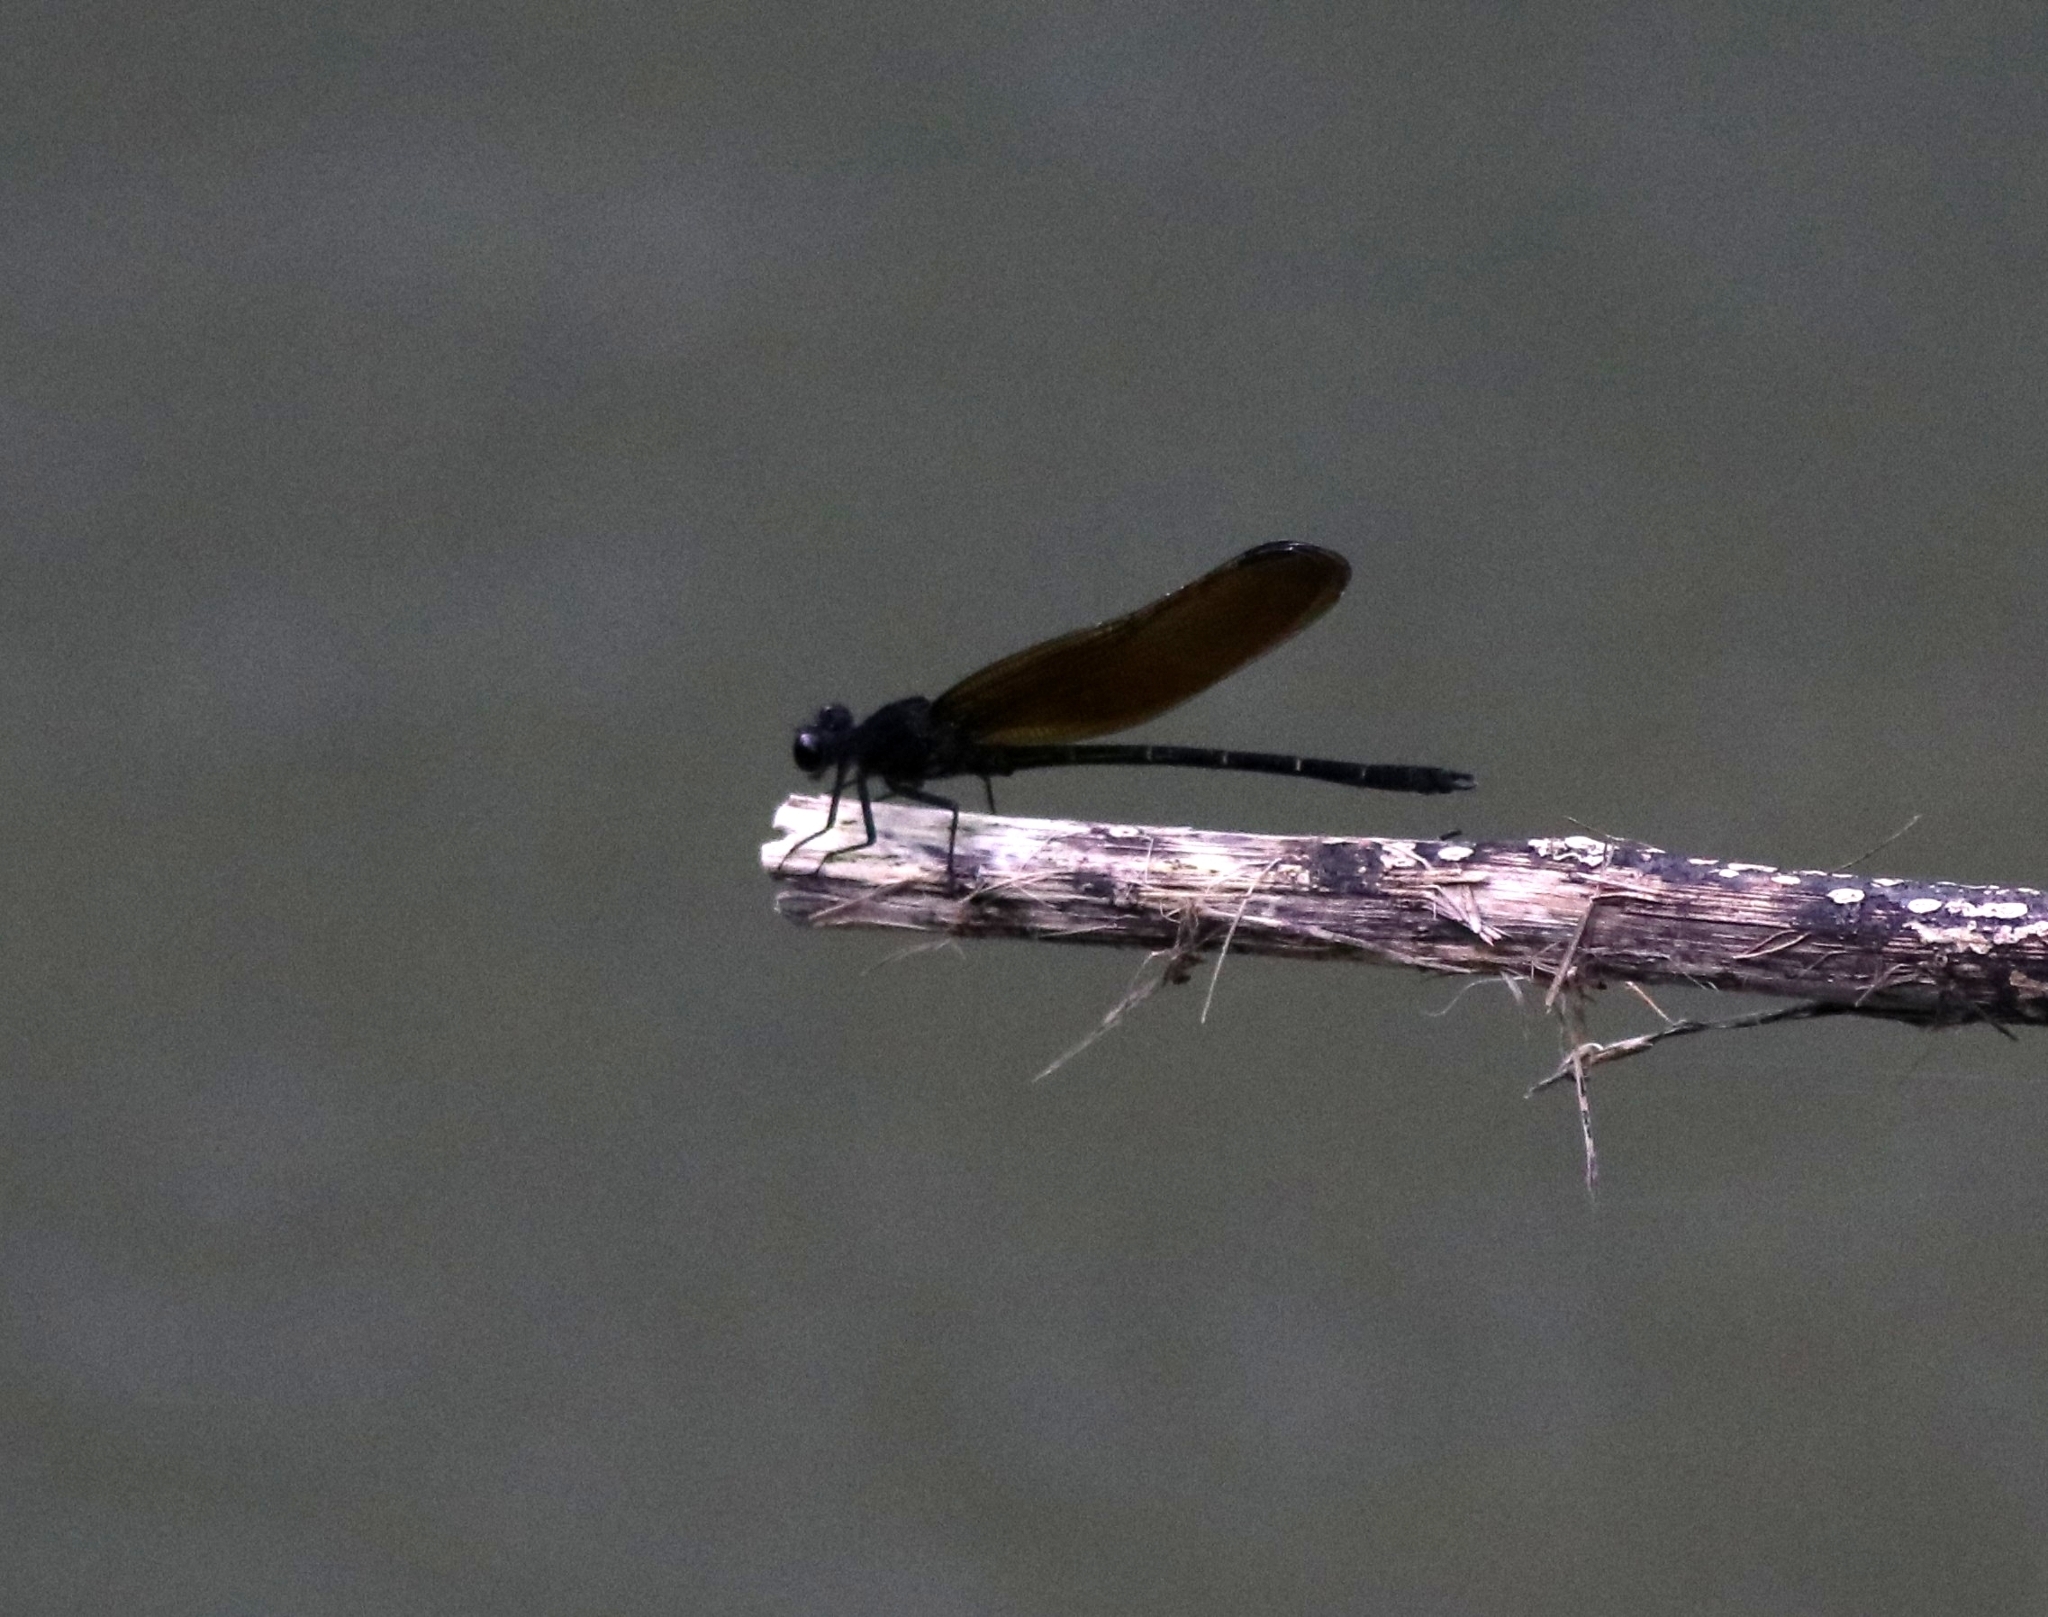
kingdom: Animalia
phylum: Arthropoda
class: Insecta
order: Odonata
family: Euphaeidae
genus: Dysphaea
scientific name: Dysphaea ethela
